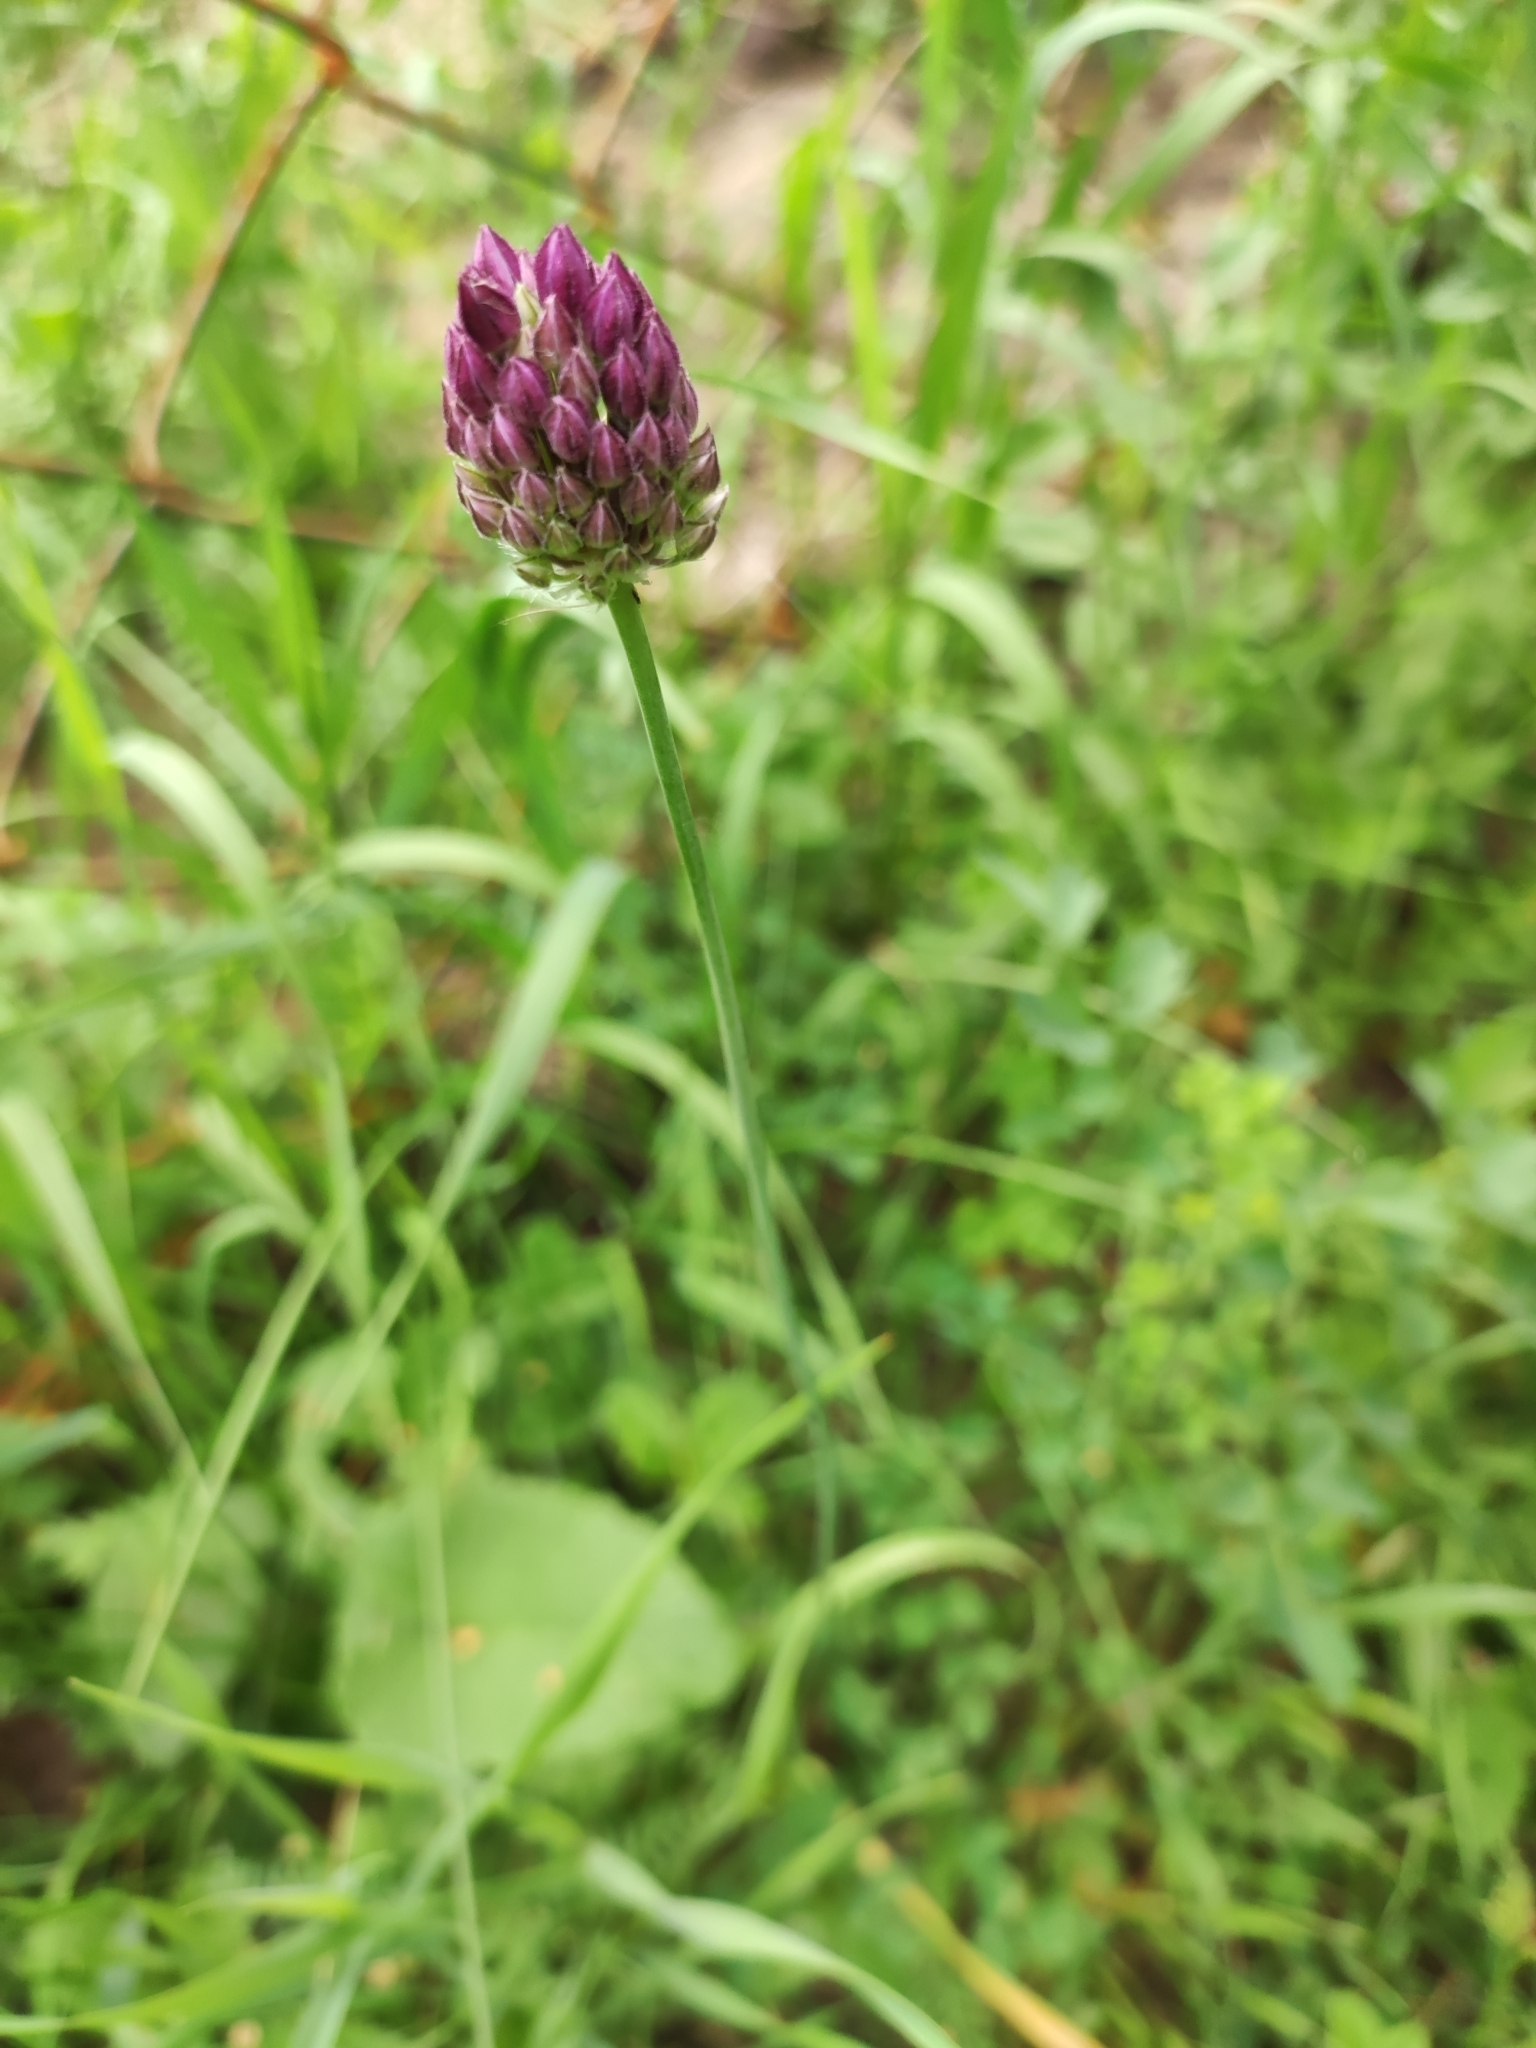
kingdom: Plantae
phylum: Tracheophyta
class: Liliopsida
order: Asparagales
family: Amaryllidaceae
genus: Allium
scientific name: Allium rotundum
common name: Sand leek
